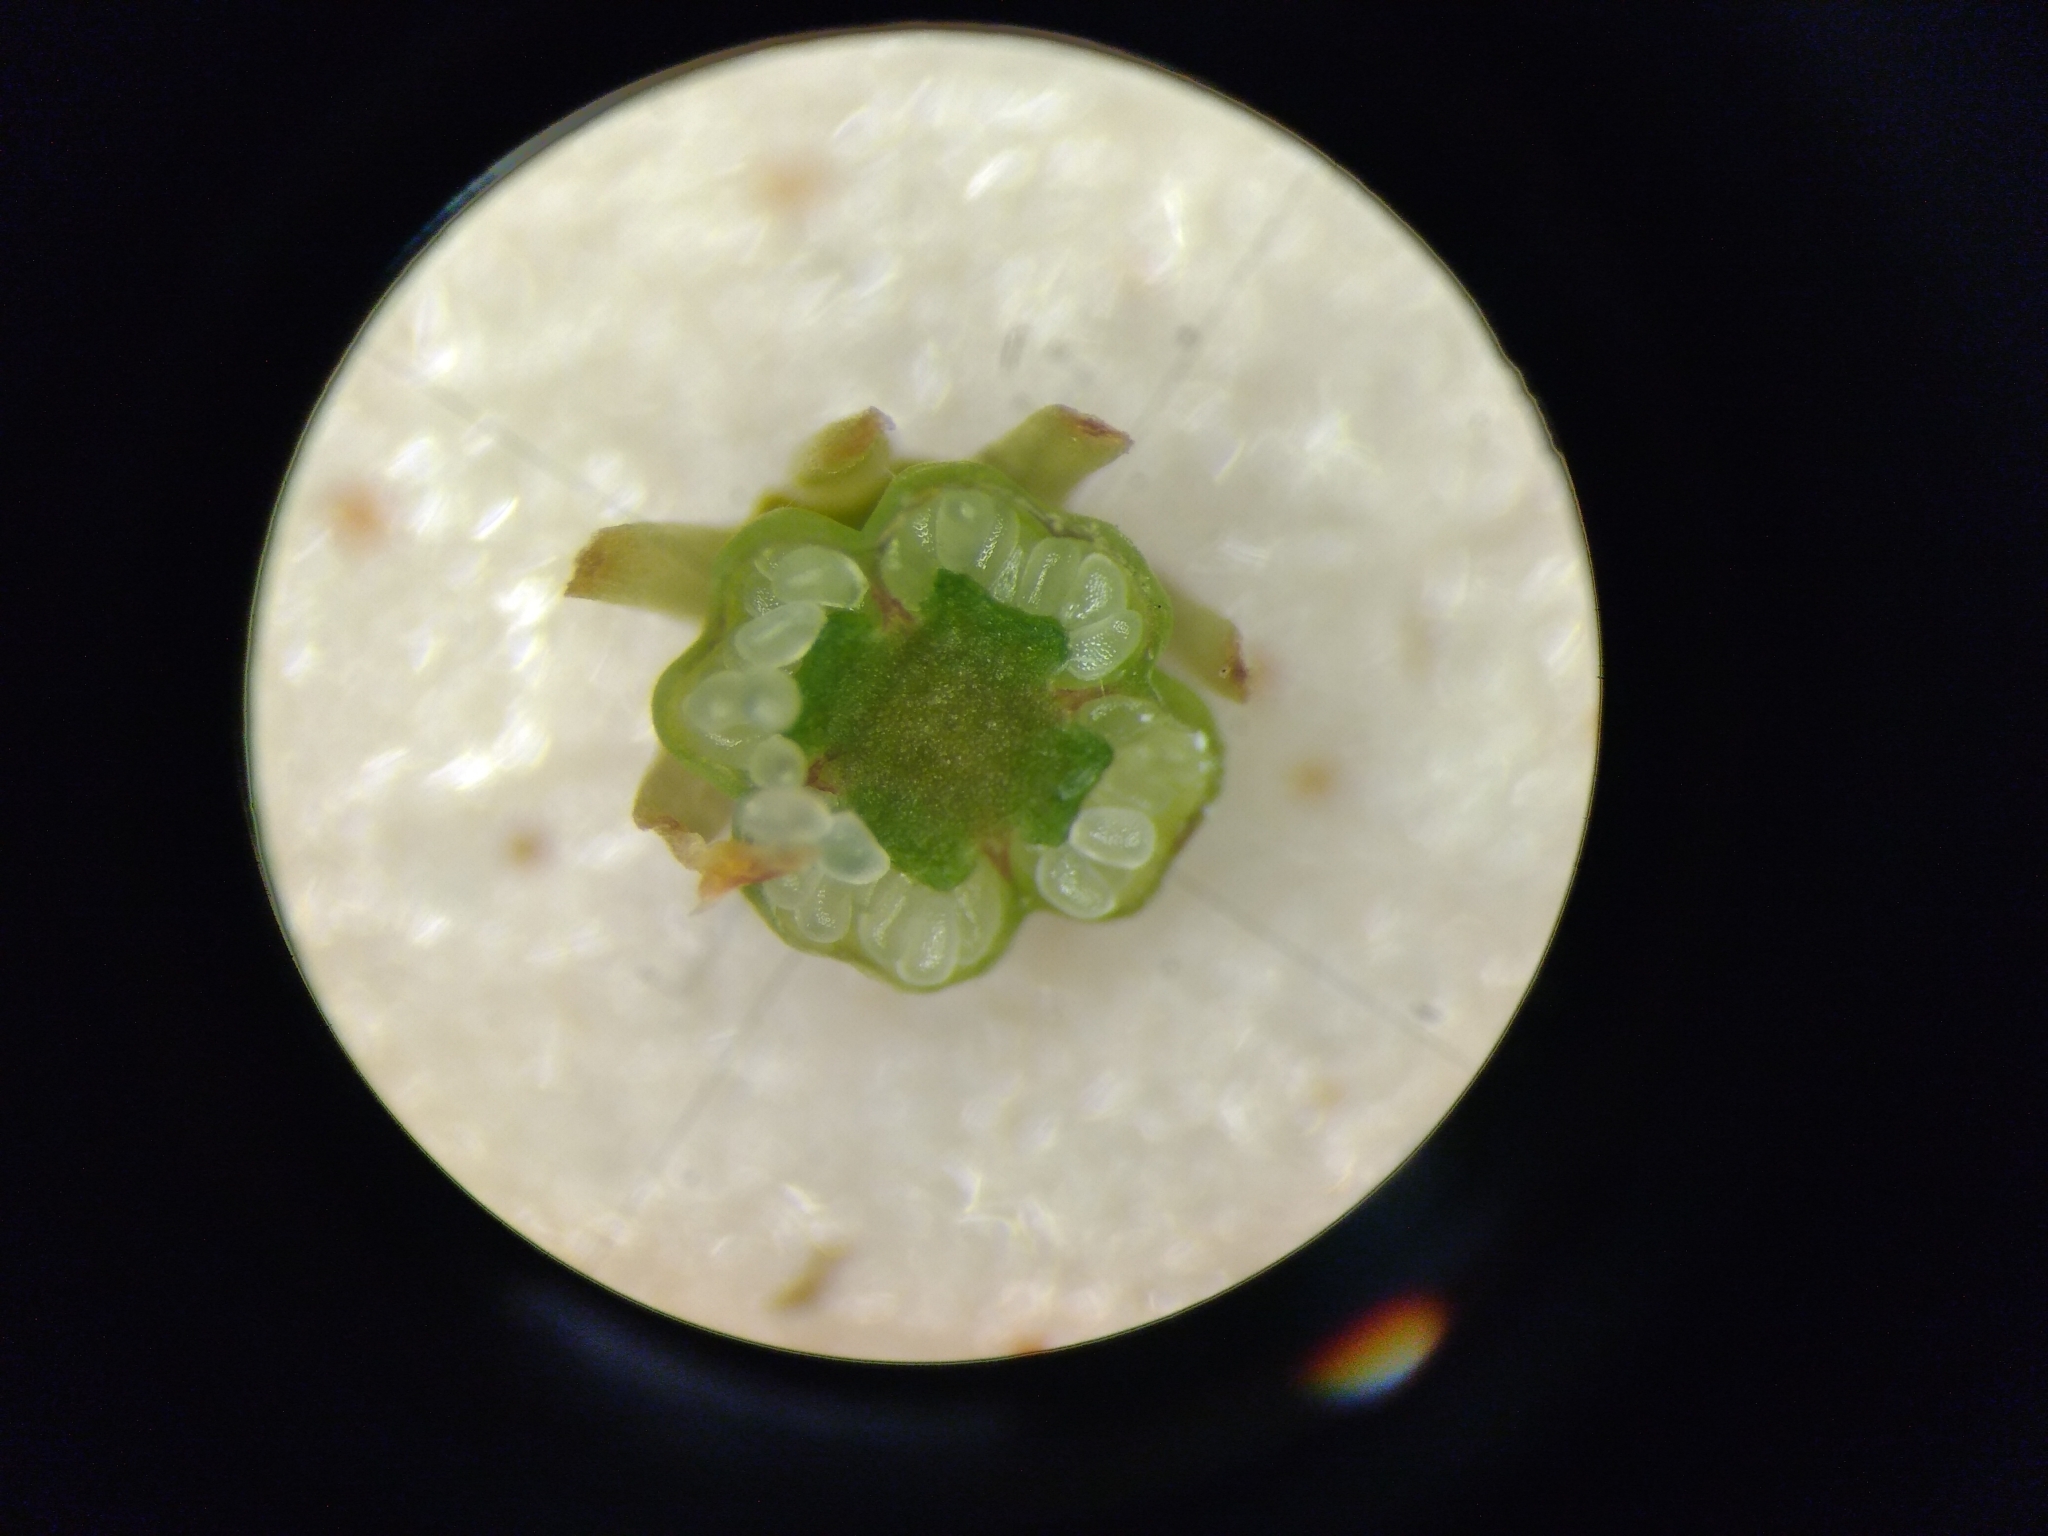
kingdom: Plantae
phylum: Tracheophyta
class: Magnoliopsida
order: Ericales
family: Ericaceae
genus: Erica
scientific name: Erica hibbertia
